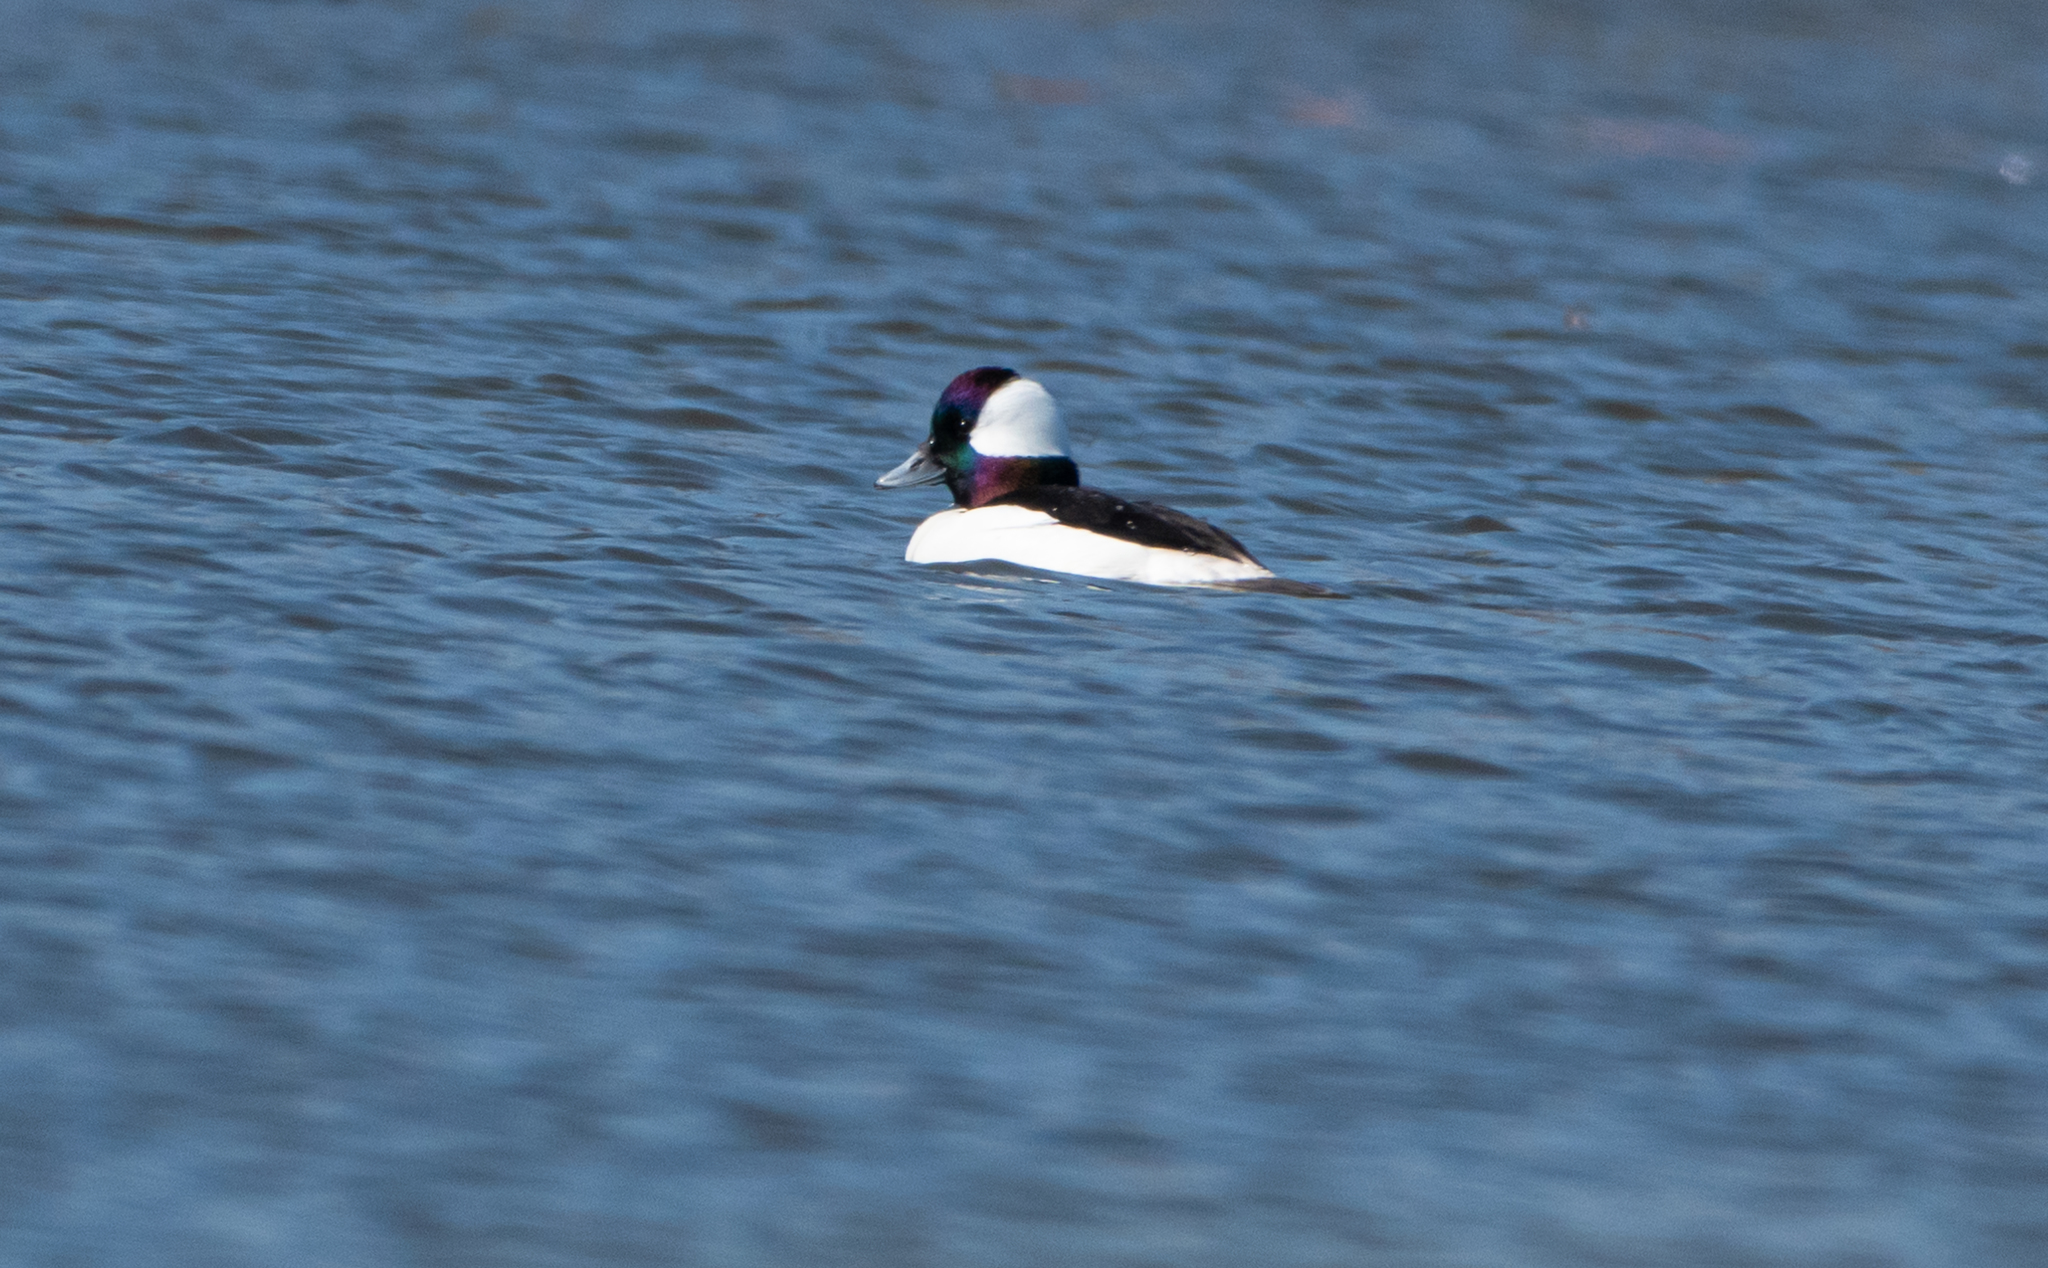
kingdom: Animalia
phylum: Chordata
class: Aves
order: Anseriformes
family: Anatidae
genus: Bucephala
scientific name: Bucephala albeola
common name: Bufflehead
